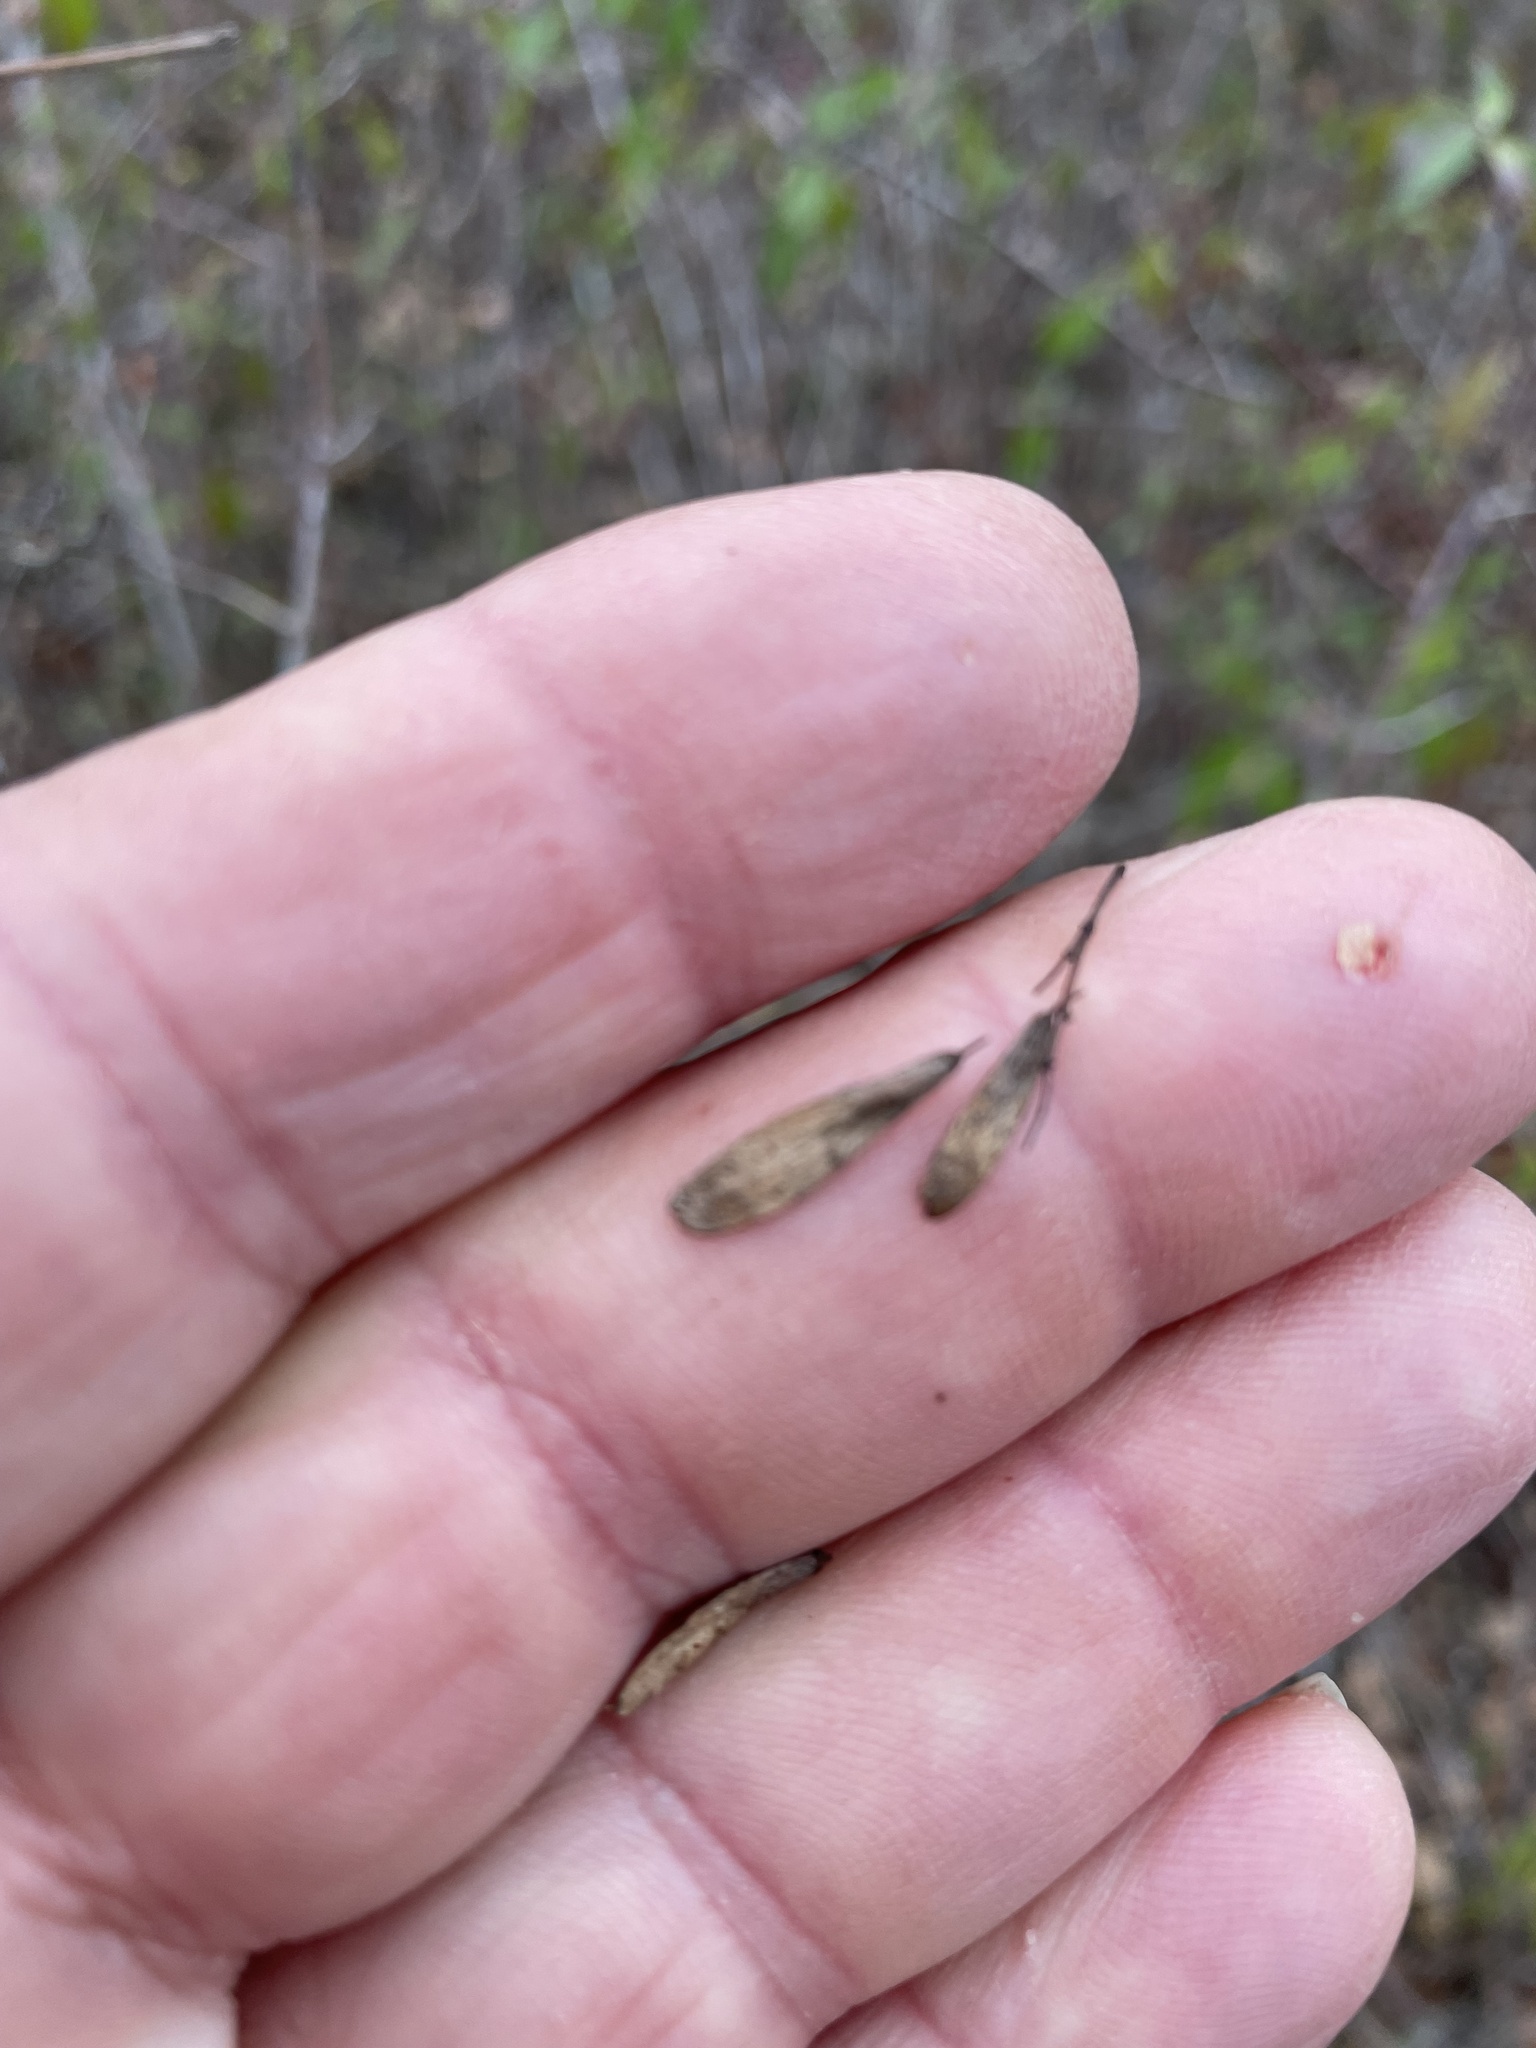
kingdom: Plantae
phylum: Tracheophyta
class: Magnoliopsida
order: Lamiales
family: Oleaceae
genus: Fraxinus
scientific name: Fraxinus albicans
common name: Texas ash
